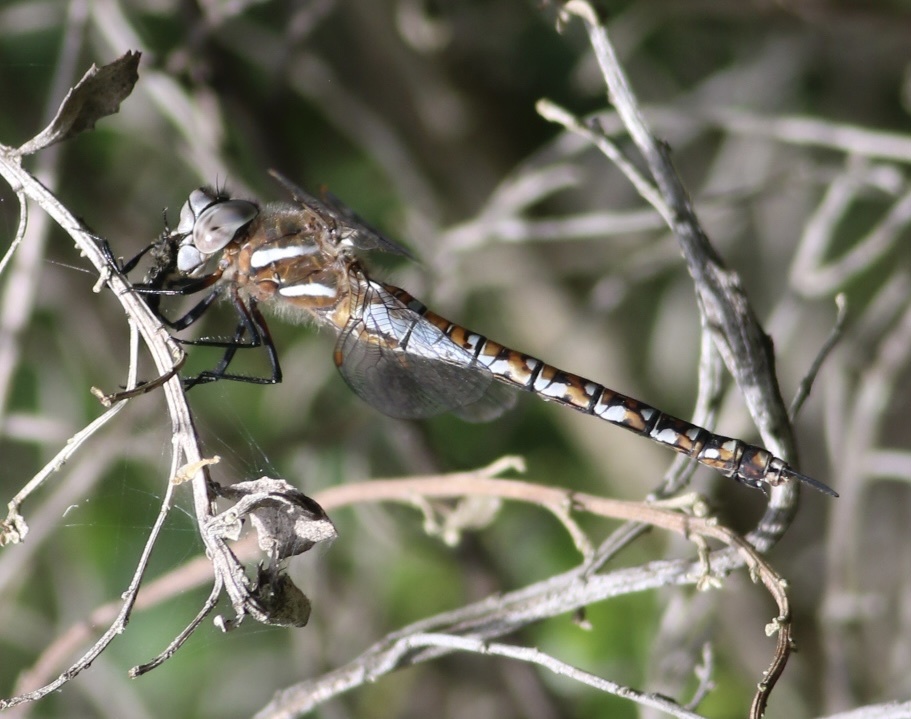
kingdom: Animalia
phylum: Arthropoda
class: Insecta
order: Odonata
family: Aeshnidae
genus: Rhionaeschna
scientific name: Rhionaeschna californica
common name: California darner
